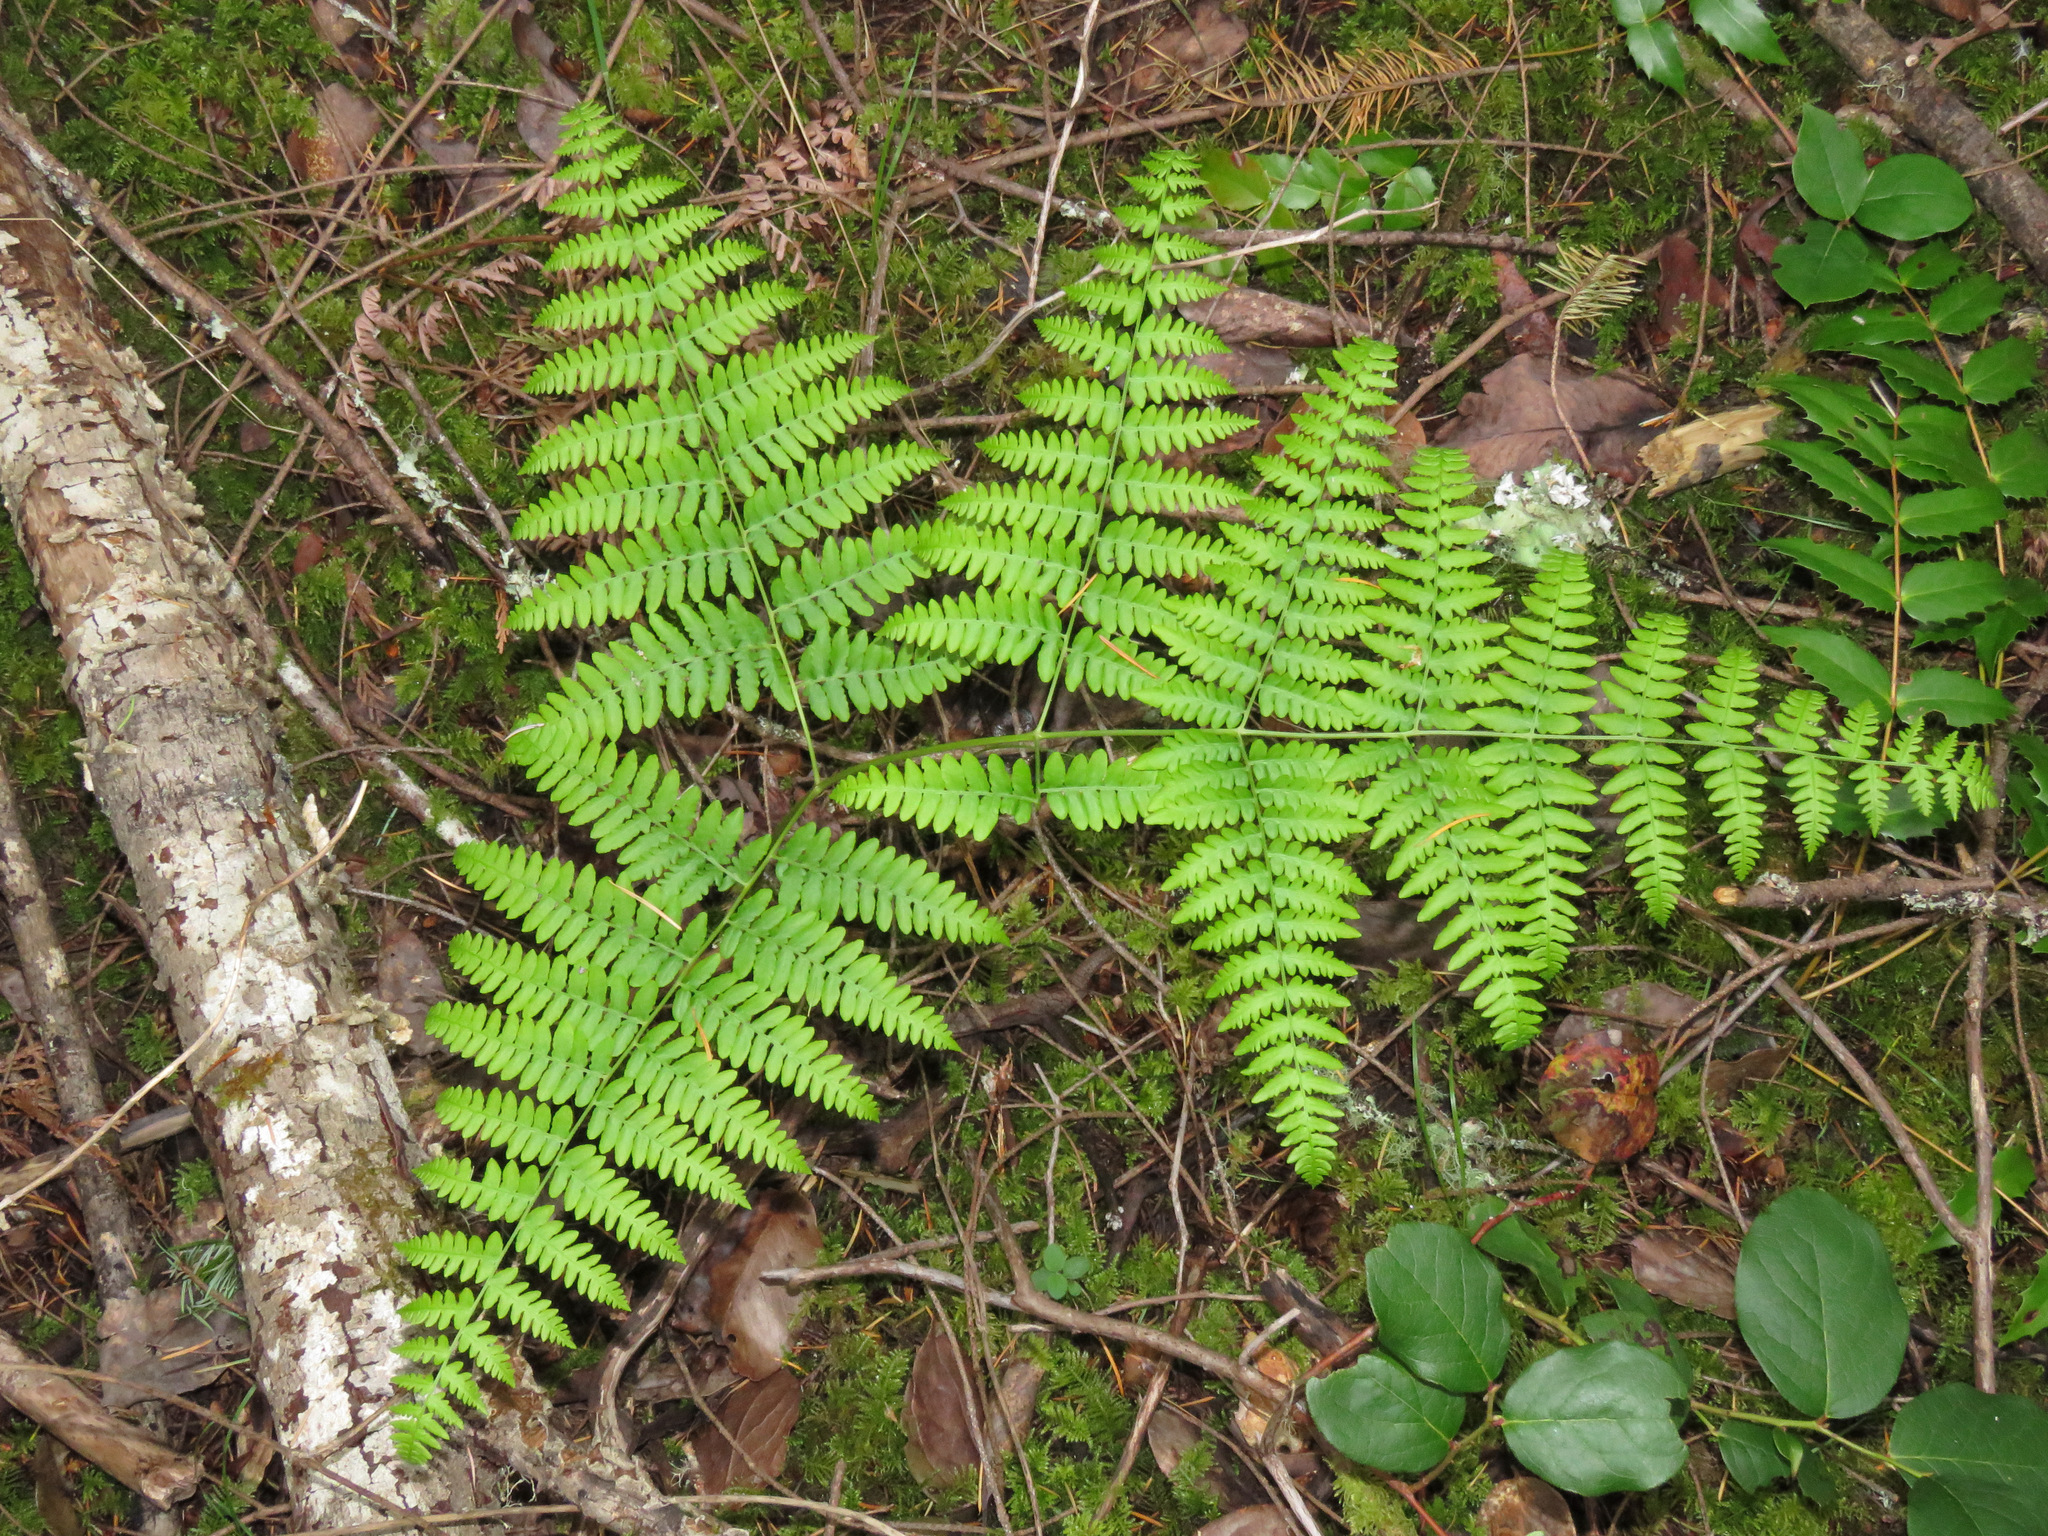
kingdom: Plantae
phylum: Tracheophyta
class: Polypodiopsida
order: Polypodiales
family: Dennstaedtiaceae
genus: Pteridium
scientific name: Pteridium aquilinum
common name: Bracken
